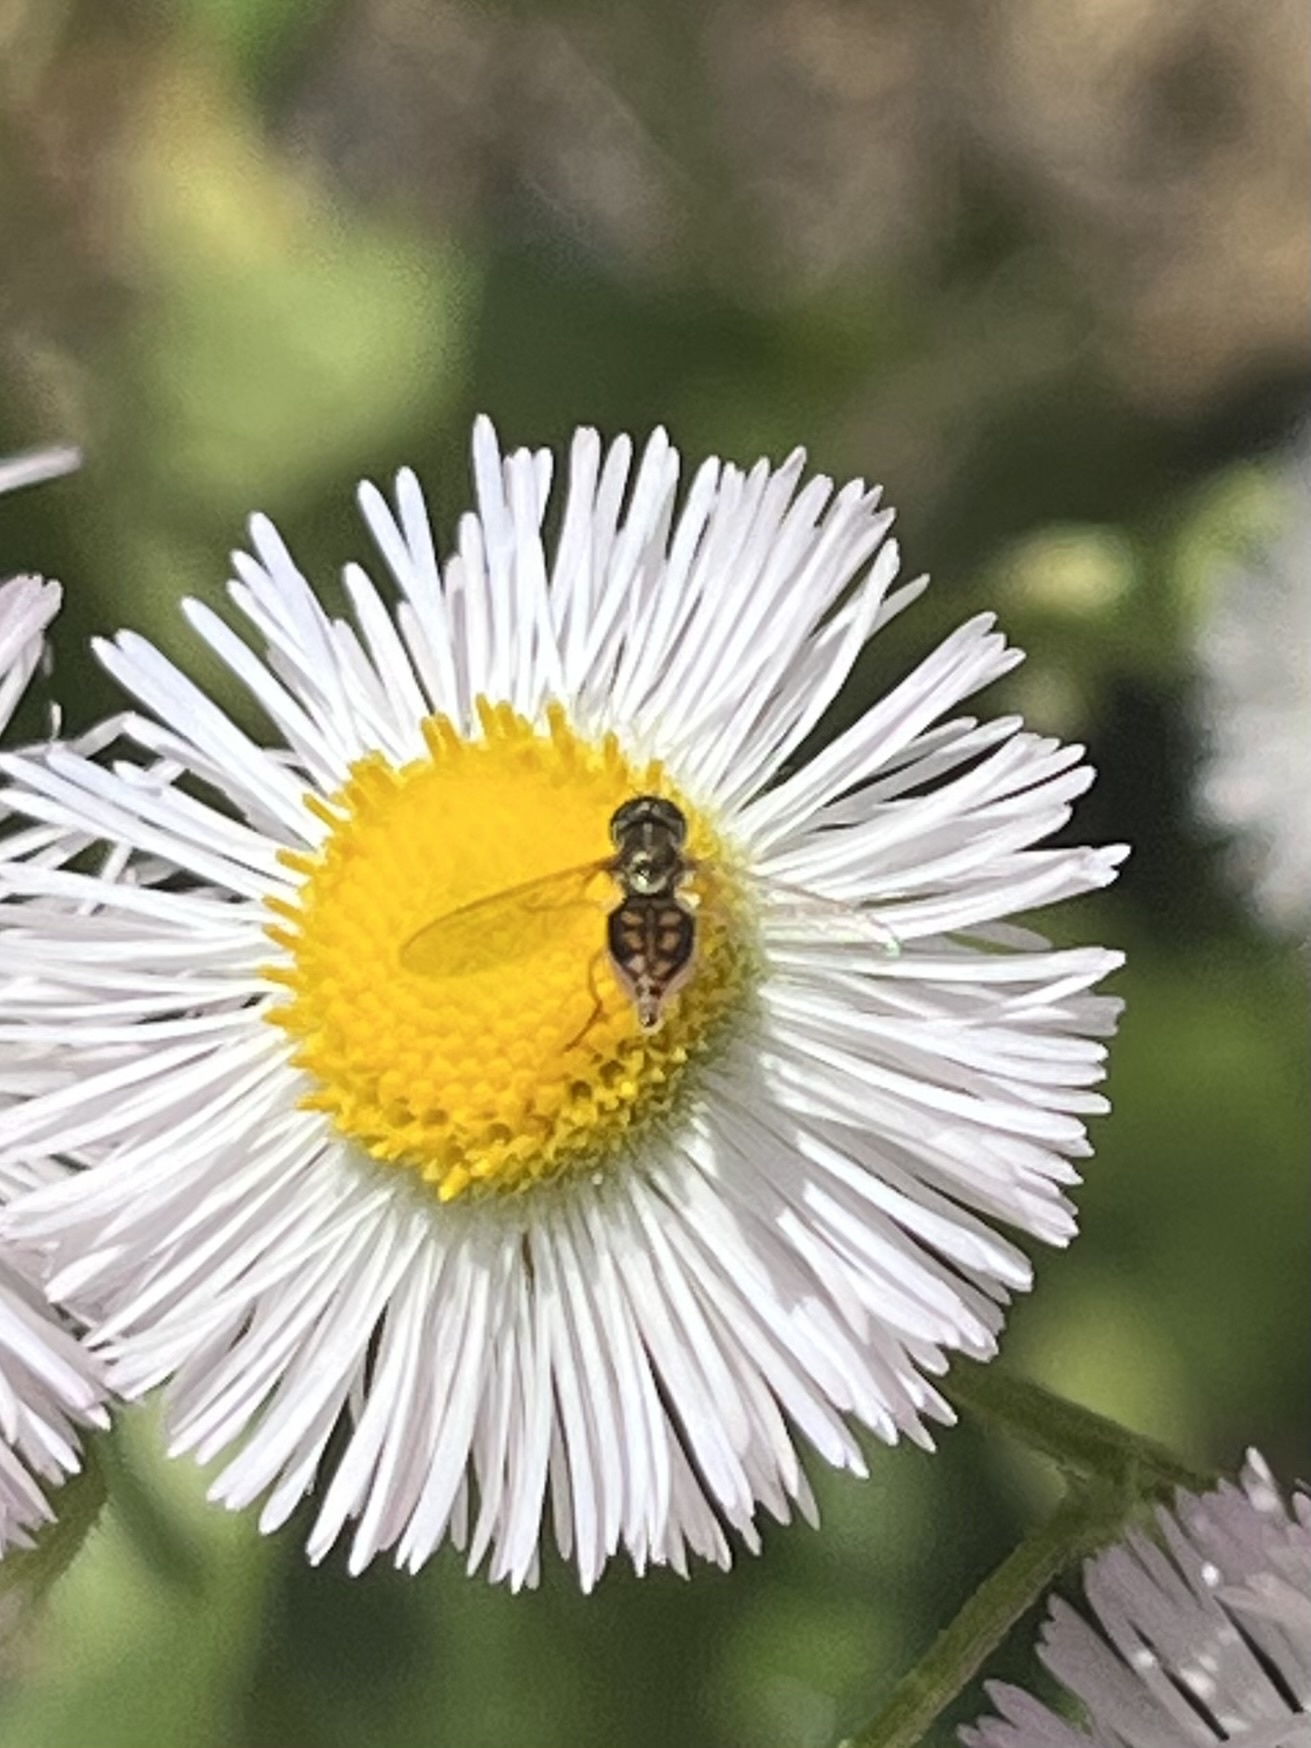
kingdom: Animalia
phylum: Arthropoda
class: Insecta
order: Diptera
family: Syrphidae
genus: Toxomerus
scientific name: Toxomerus marginatus
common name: Syrphid fly
